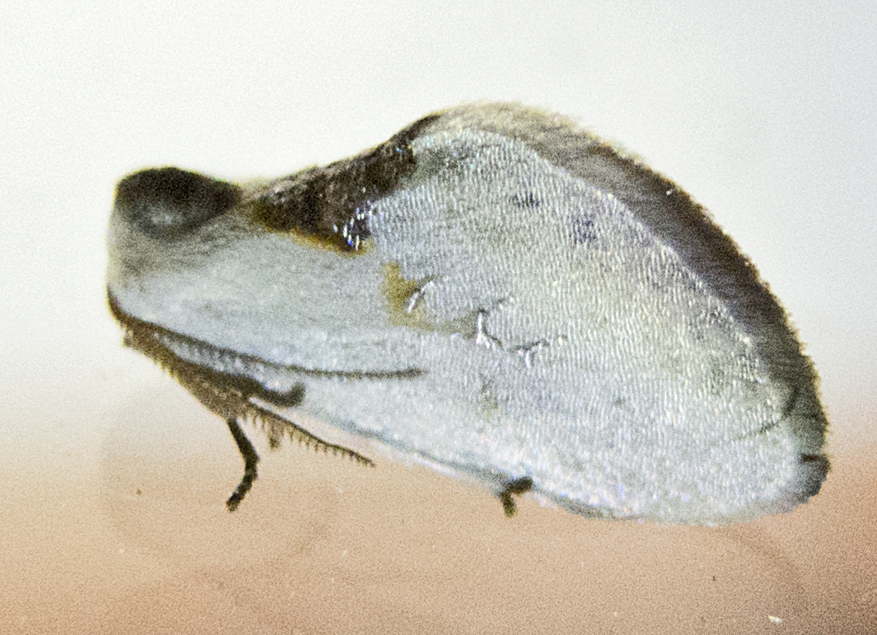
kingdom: Animalia
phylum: Arthropoda
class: Insecta
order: Lepidoptera
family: Drepanidae
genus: Cilix
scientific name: Cilix glaucata
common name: Chinese character
